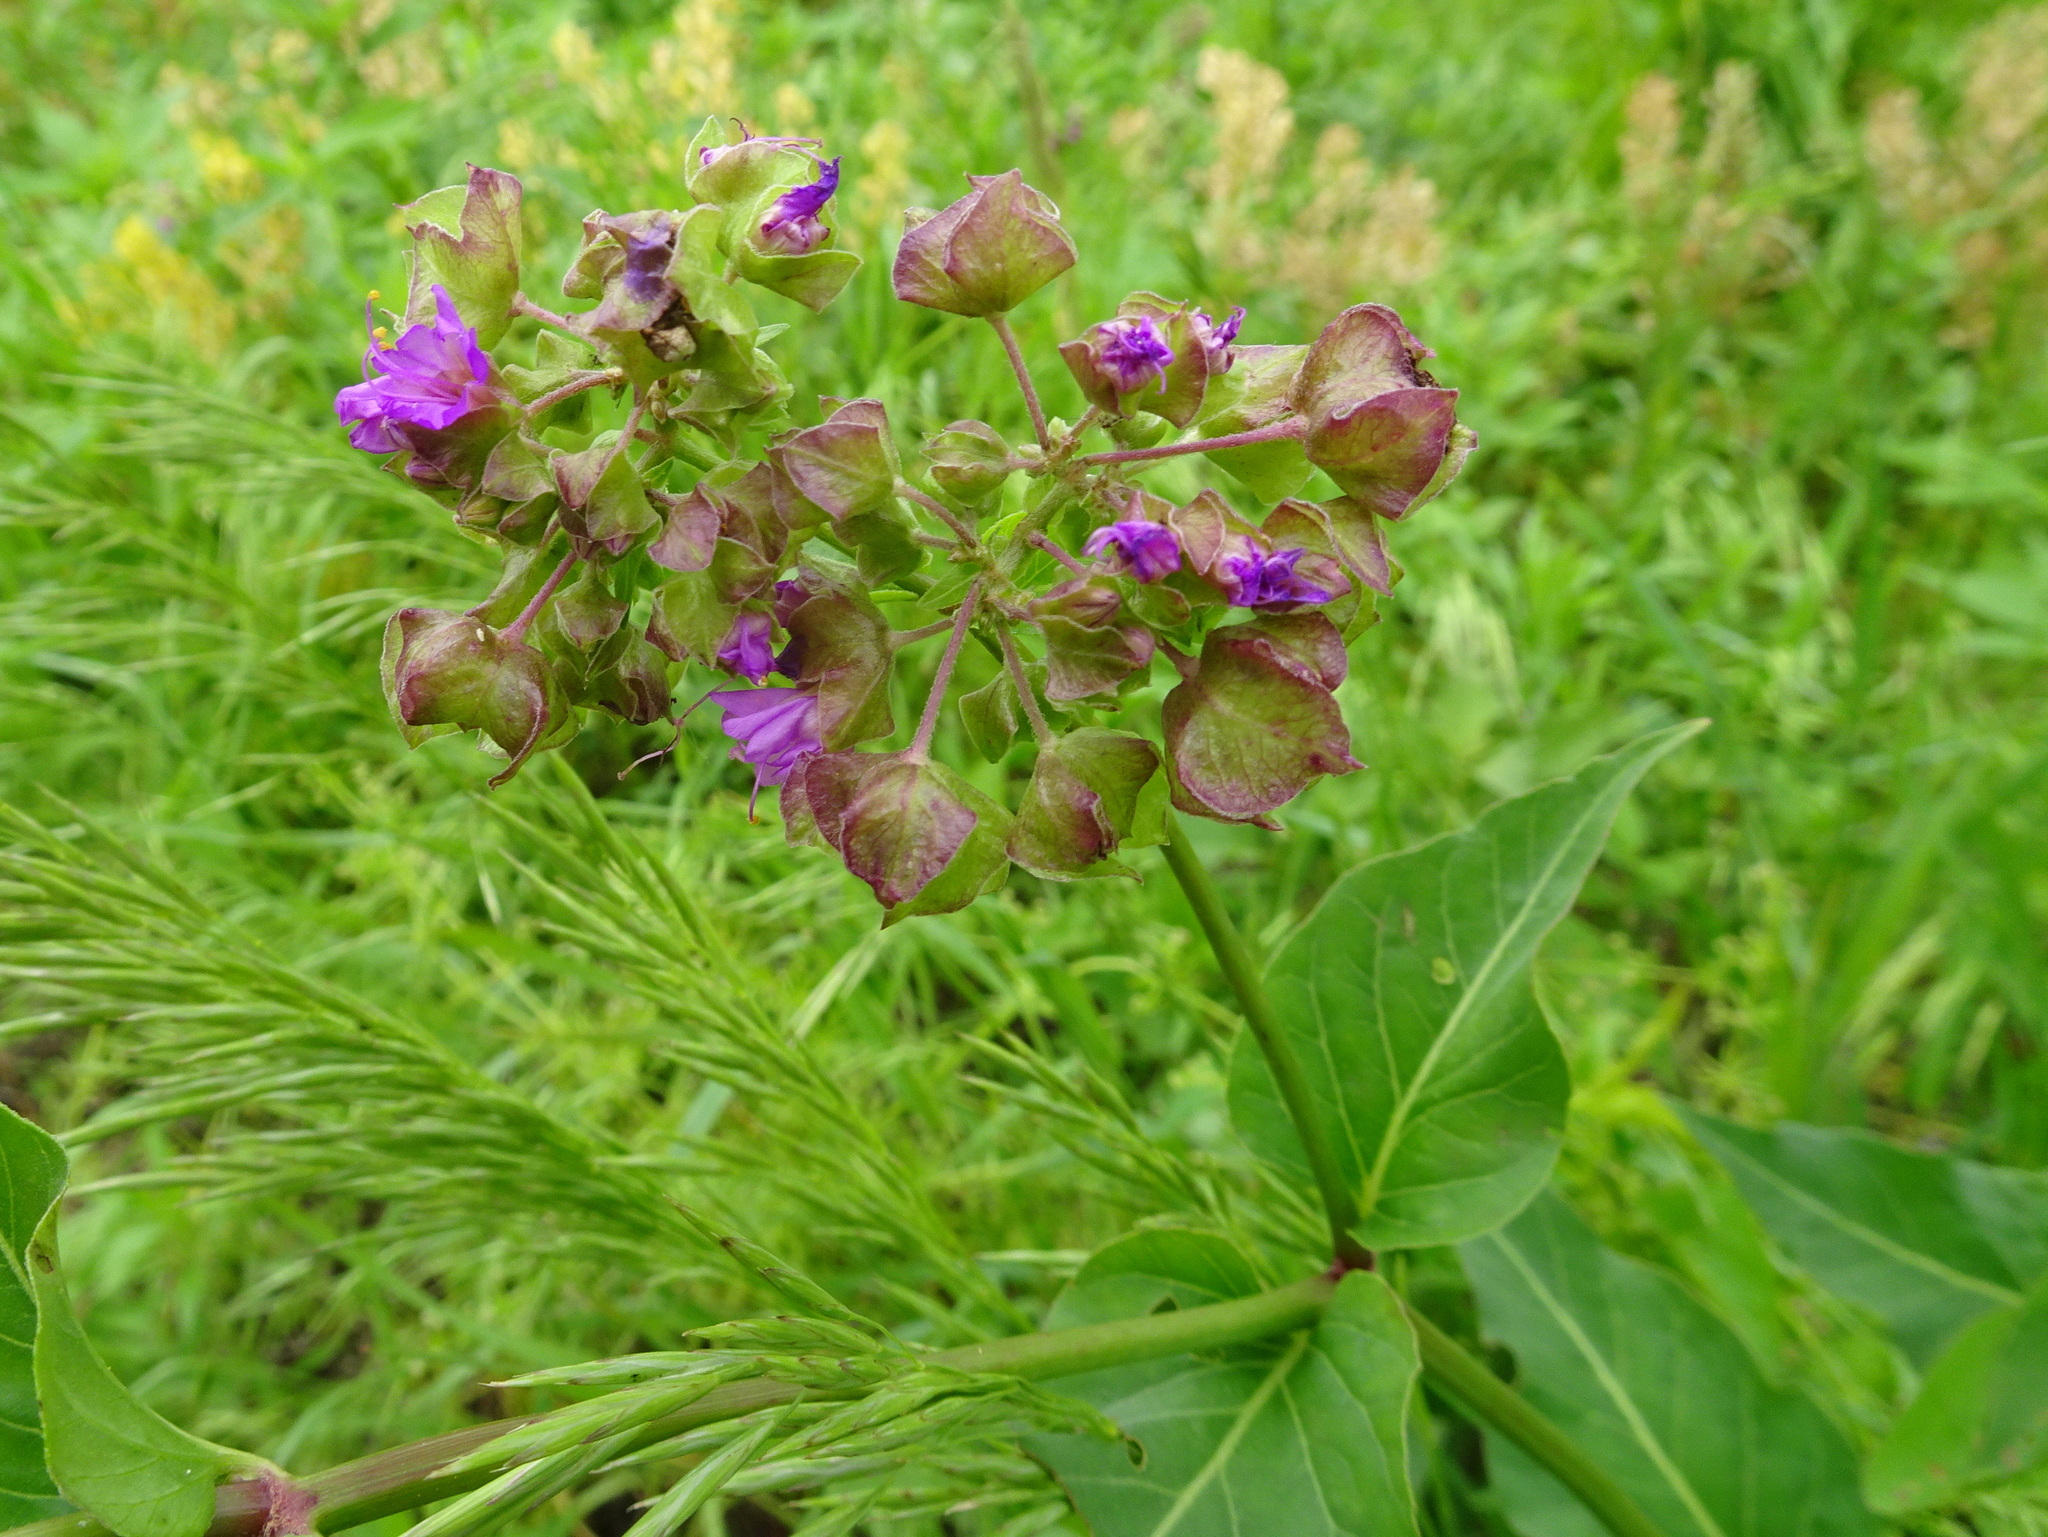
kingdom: Plantae
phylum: Tracheophyta
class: Magnoliopsida
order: Caryophyllales
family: Nyctaginaceae
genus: Mirabilis
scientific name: Mirabilis nyctaginea
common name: Umbrella wort
